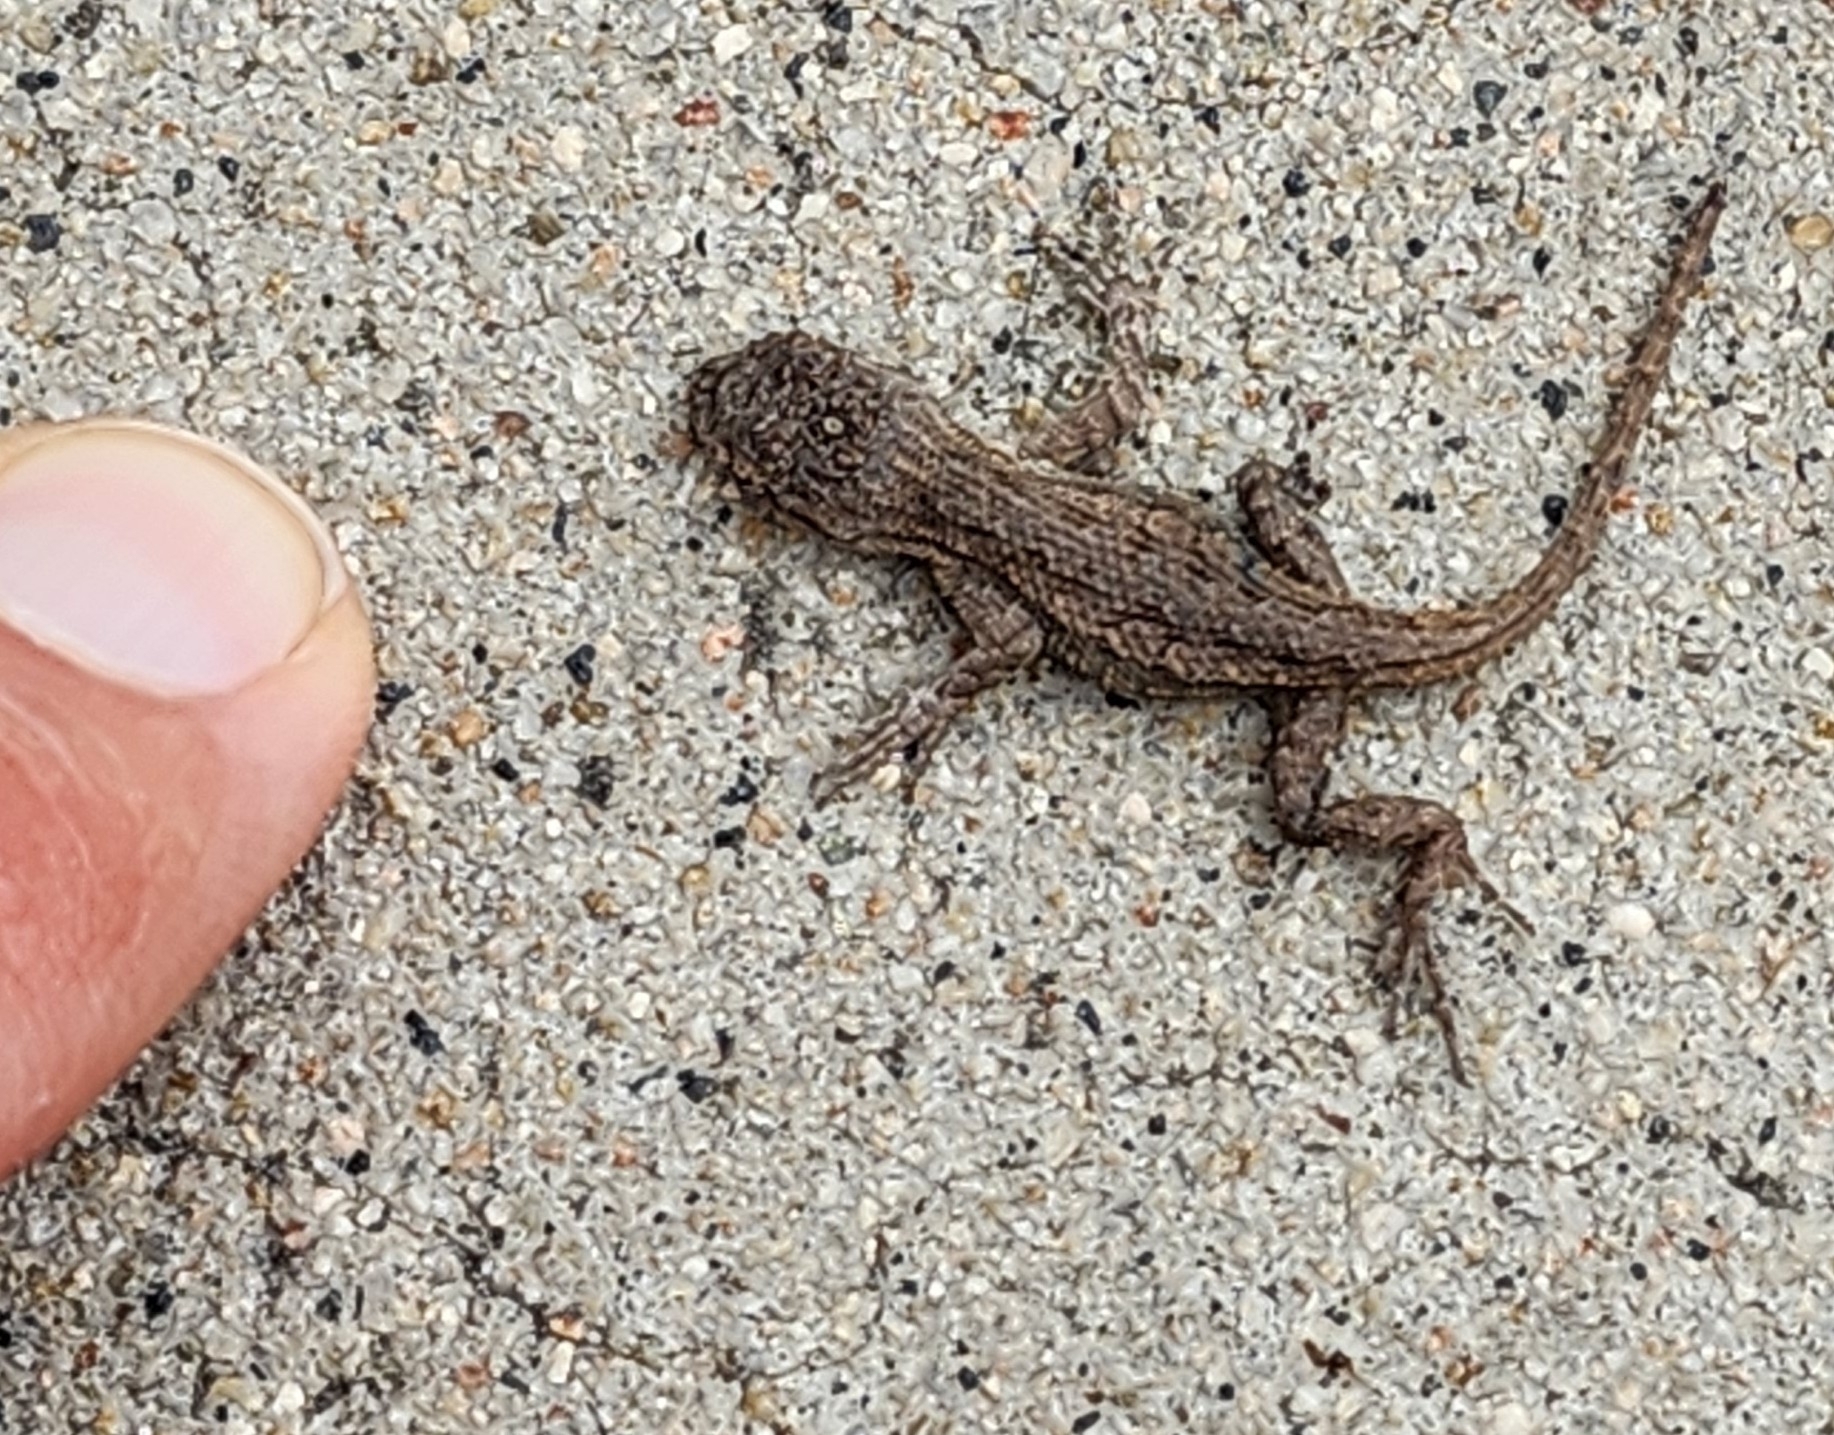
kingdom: Animalia
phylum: Chordata
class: Squamata
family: Phrynosomatidae
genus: Sceloporus
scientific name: Sceloporus occidentalis
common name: Western fence lizard
